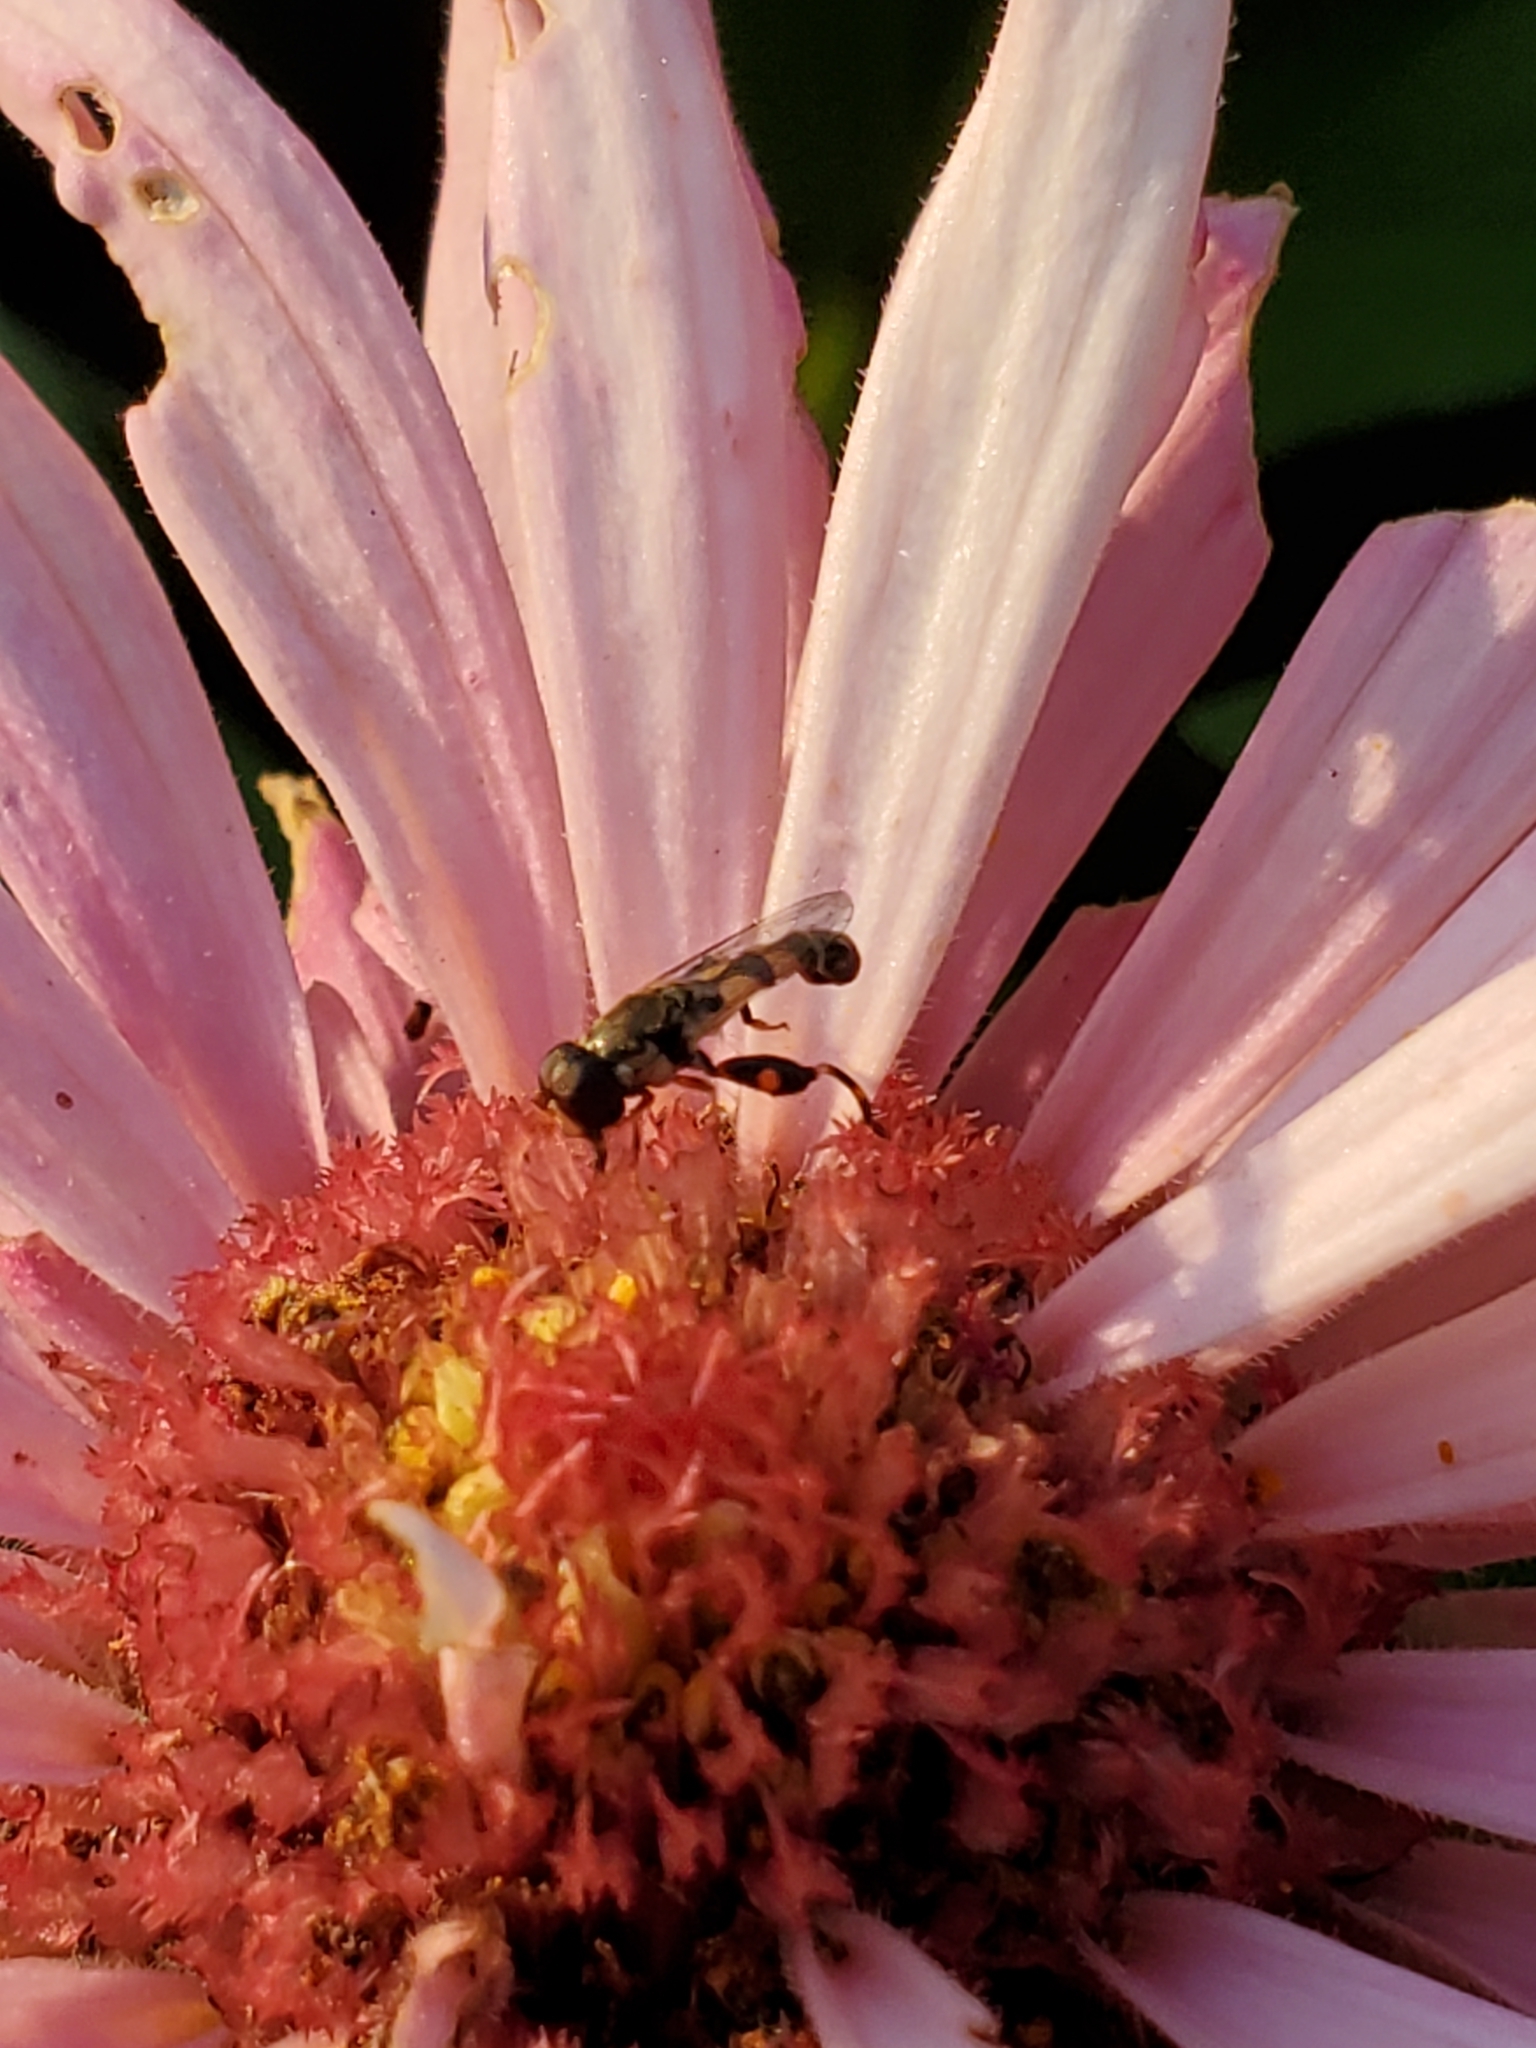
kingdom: Animalia
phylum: Arthropoda
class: Insecta
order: Diptera
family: Syrphidae
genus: Syritta
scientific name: Syritta pipiens
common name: Hover fly
